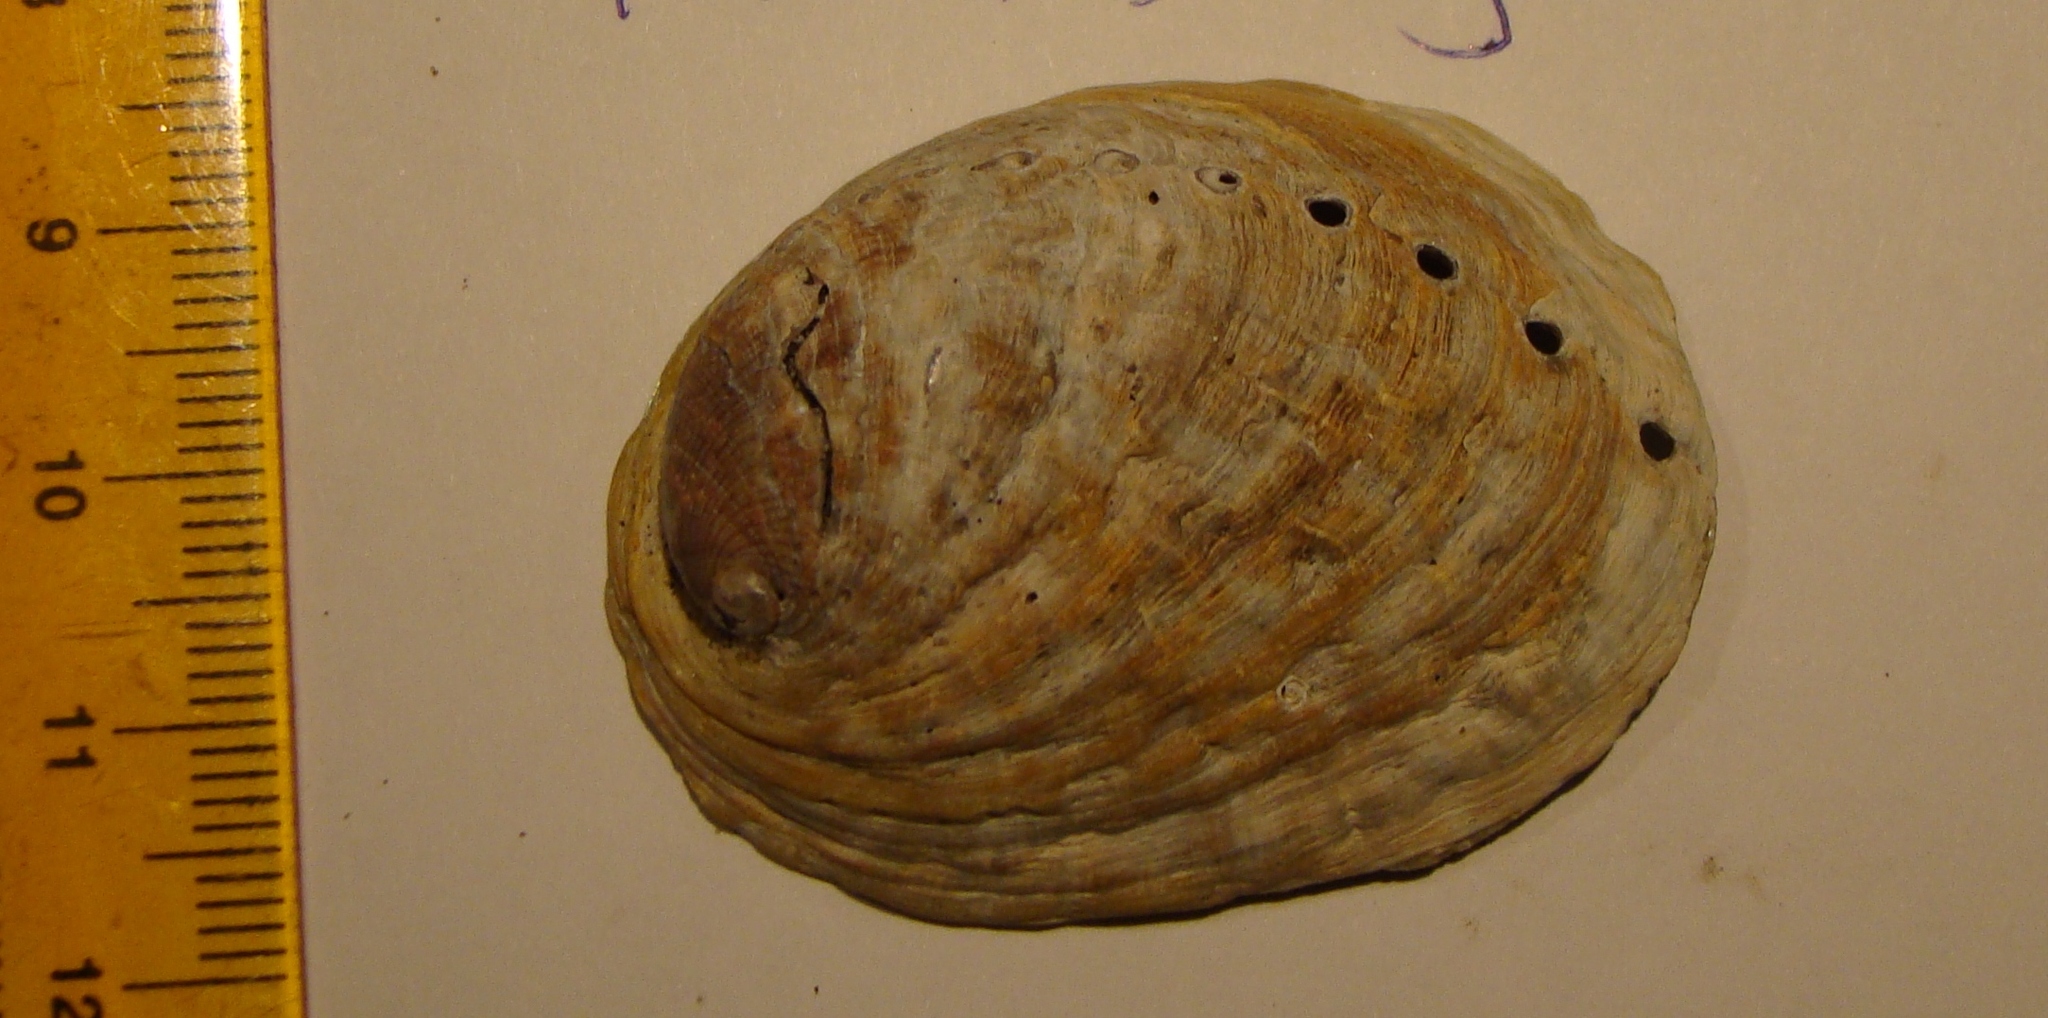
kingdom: Animalia
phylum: Mollusca
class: Gastropoda
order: Lepetellida
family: Haliotidae
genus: Haliotis
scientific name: Haliotis iris
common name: Abalone
